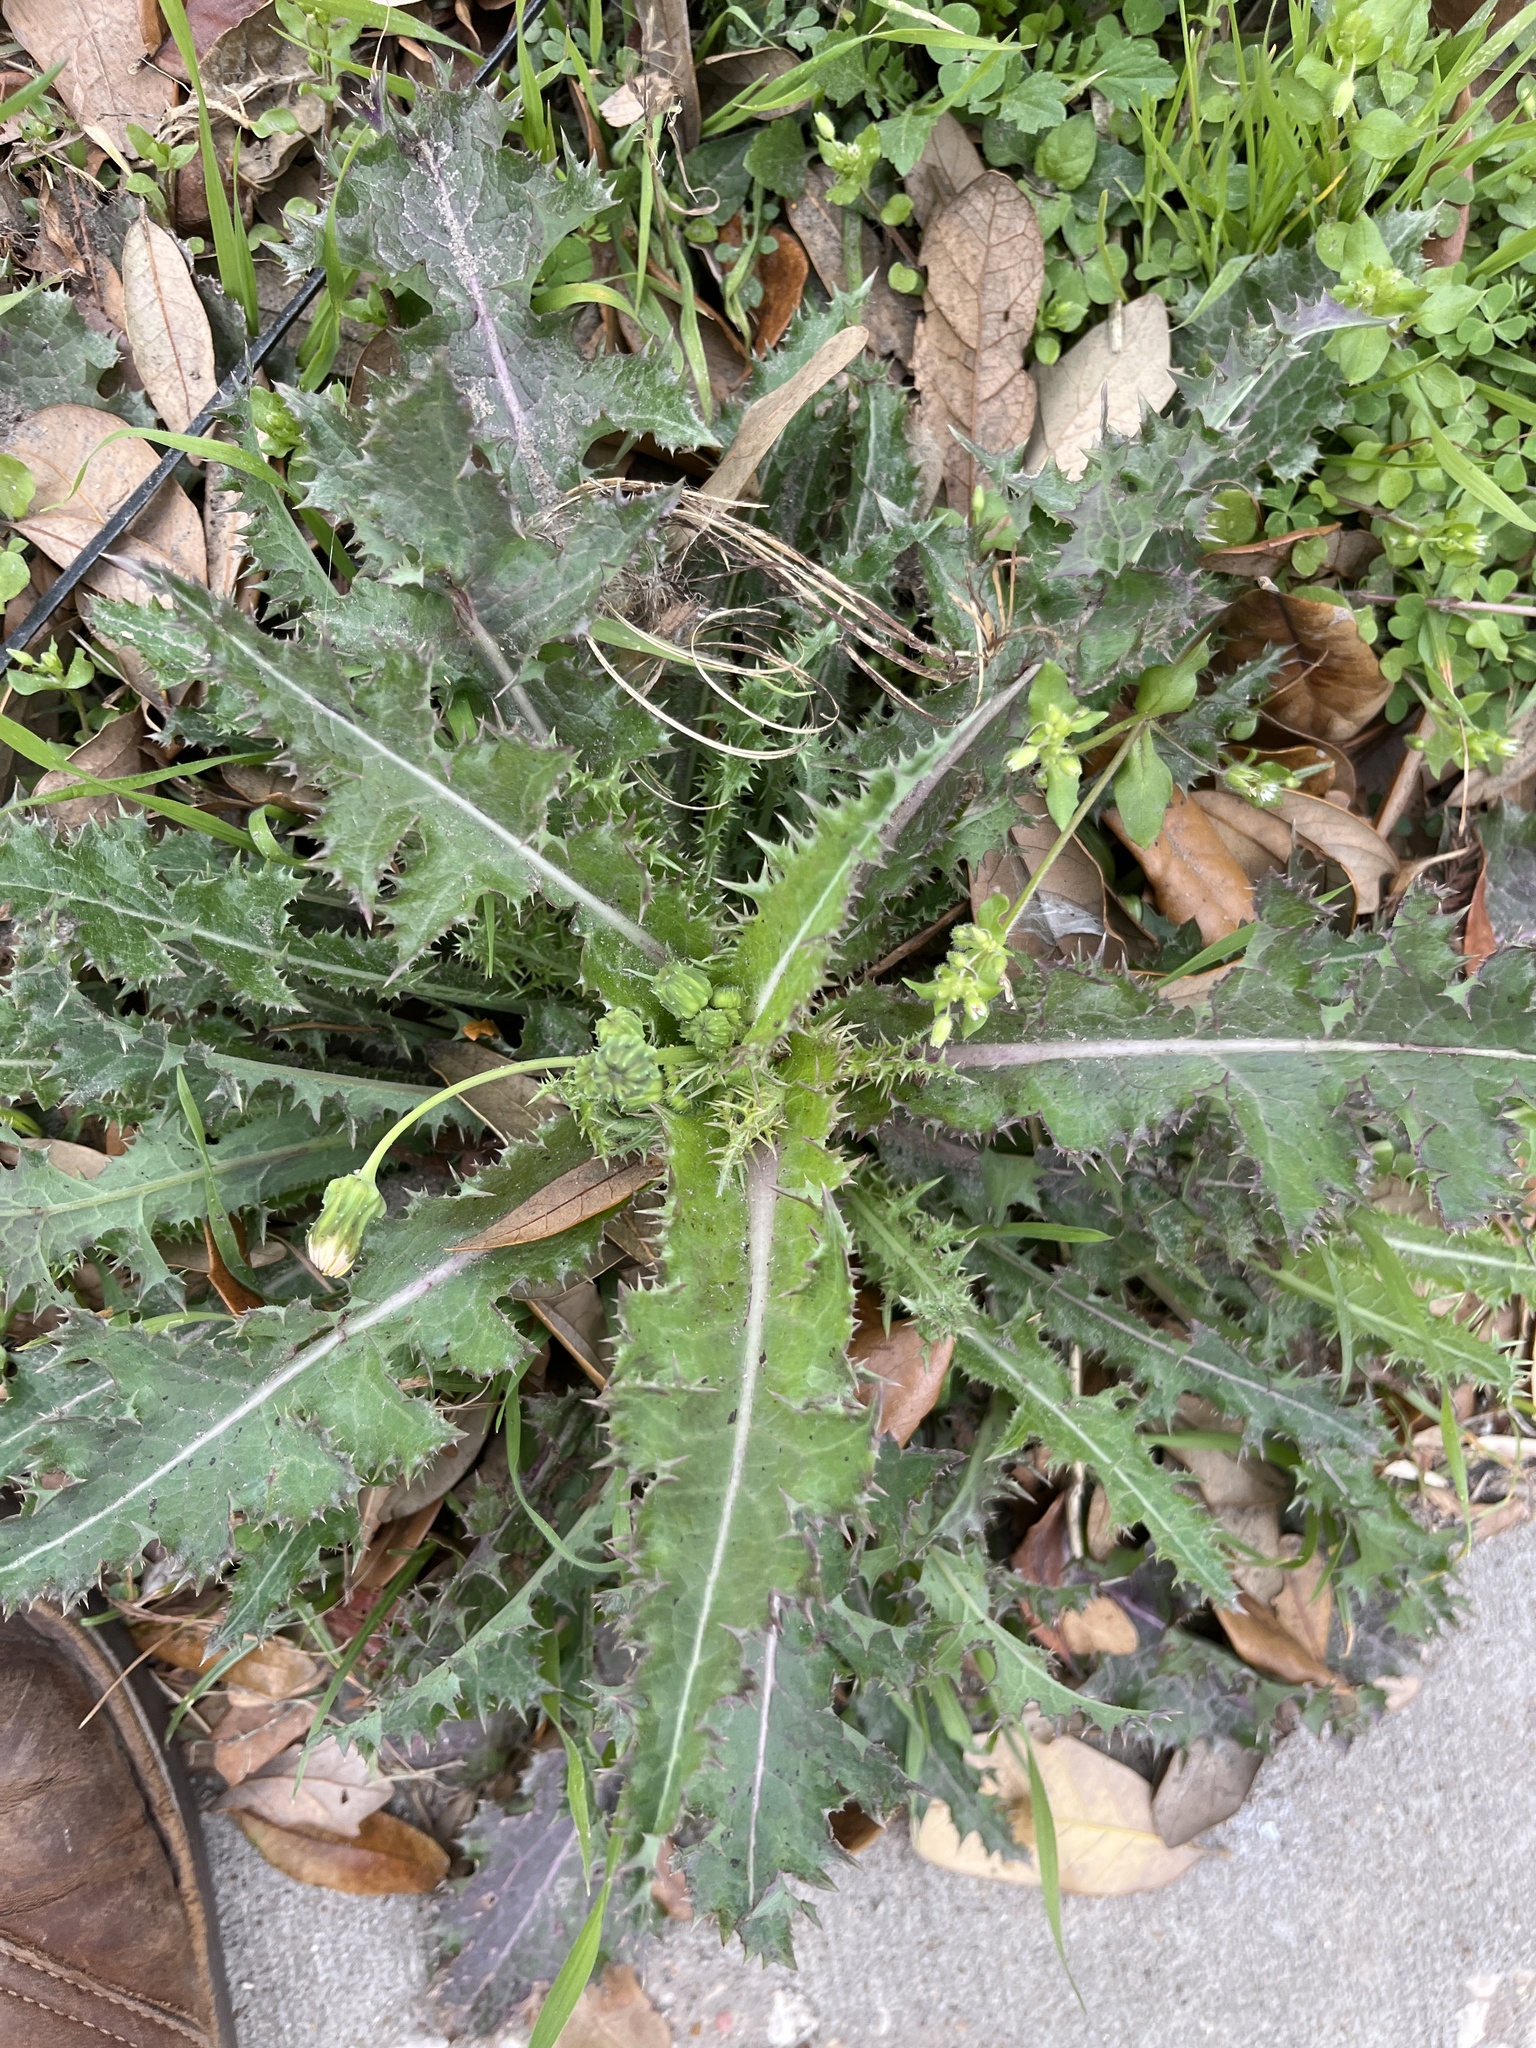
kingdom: Plantae
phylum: Tracheophyta
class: Magnoliopsida
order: Asterales
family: Asteraceae
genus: Sonchus
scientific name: Sonchus asper
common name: Prickly sow-thistle
